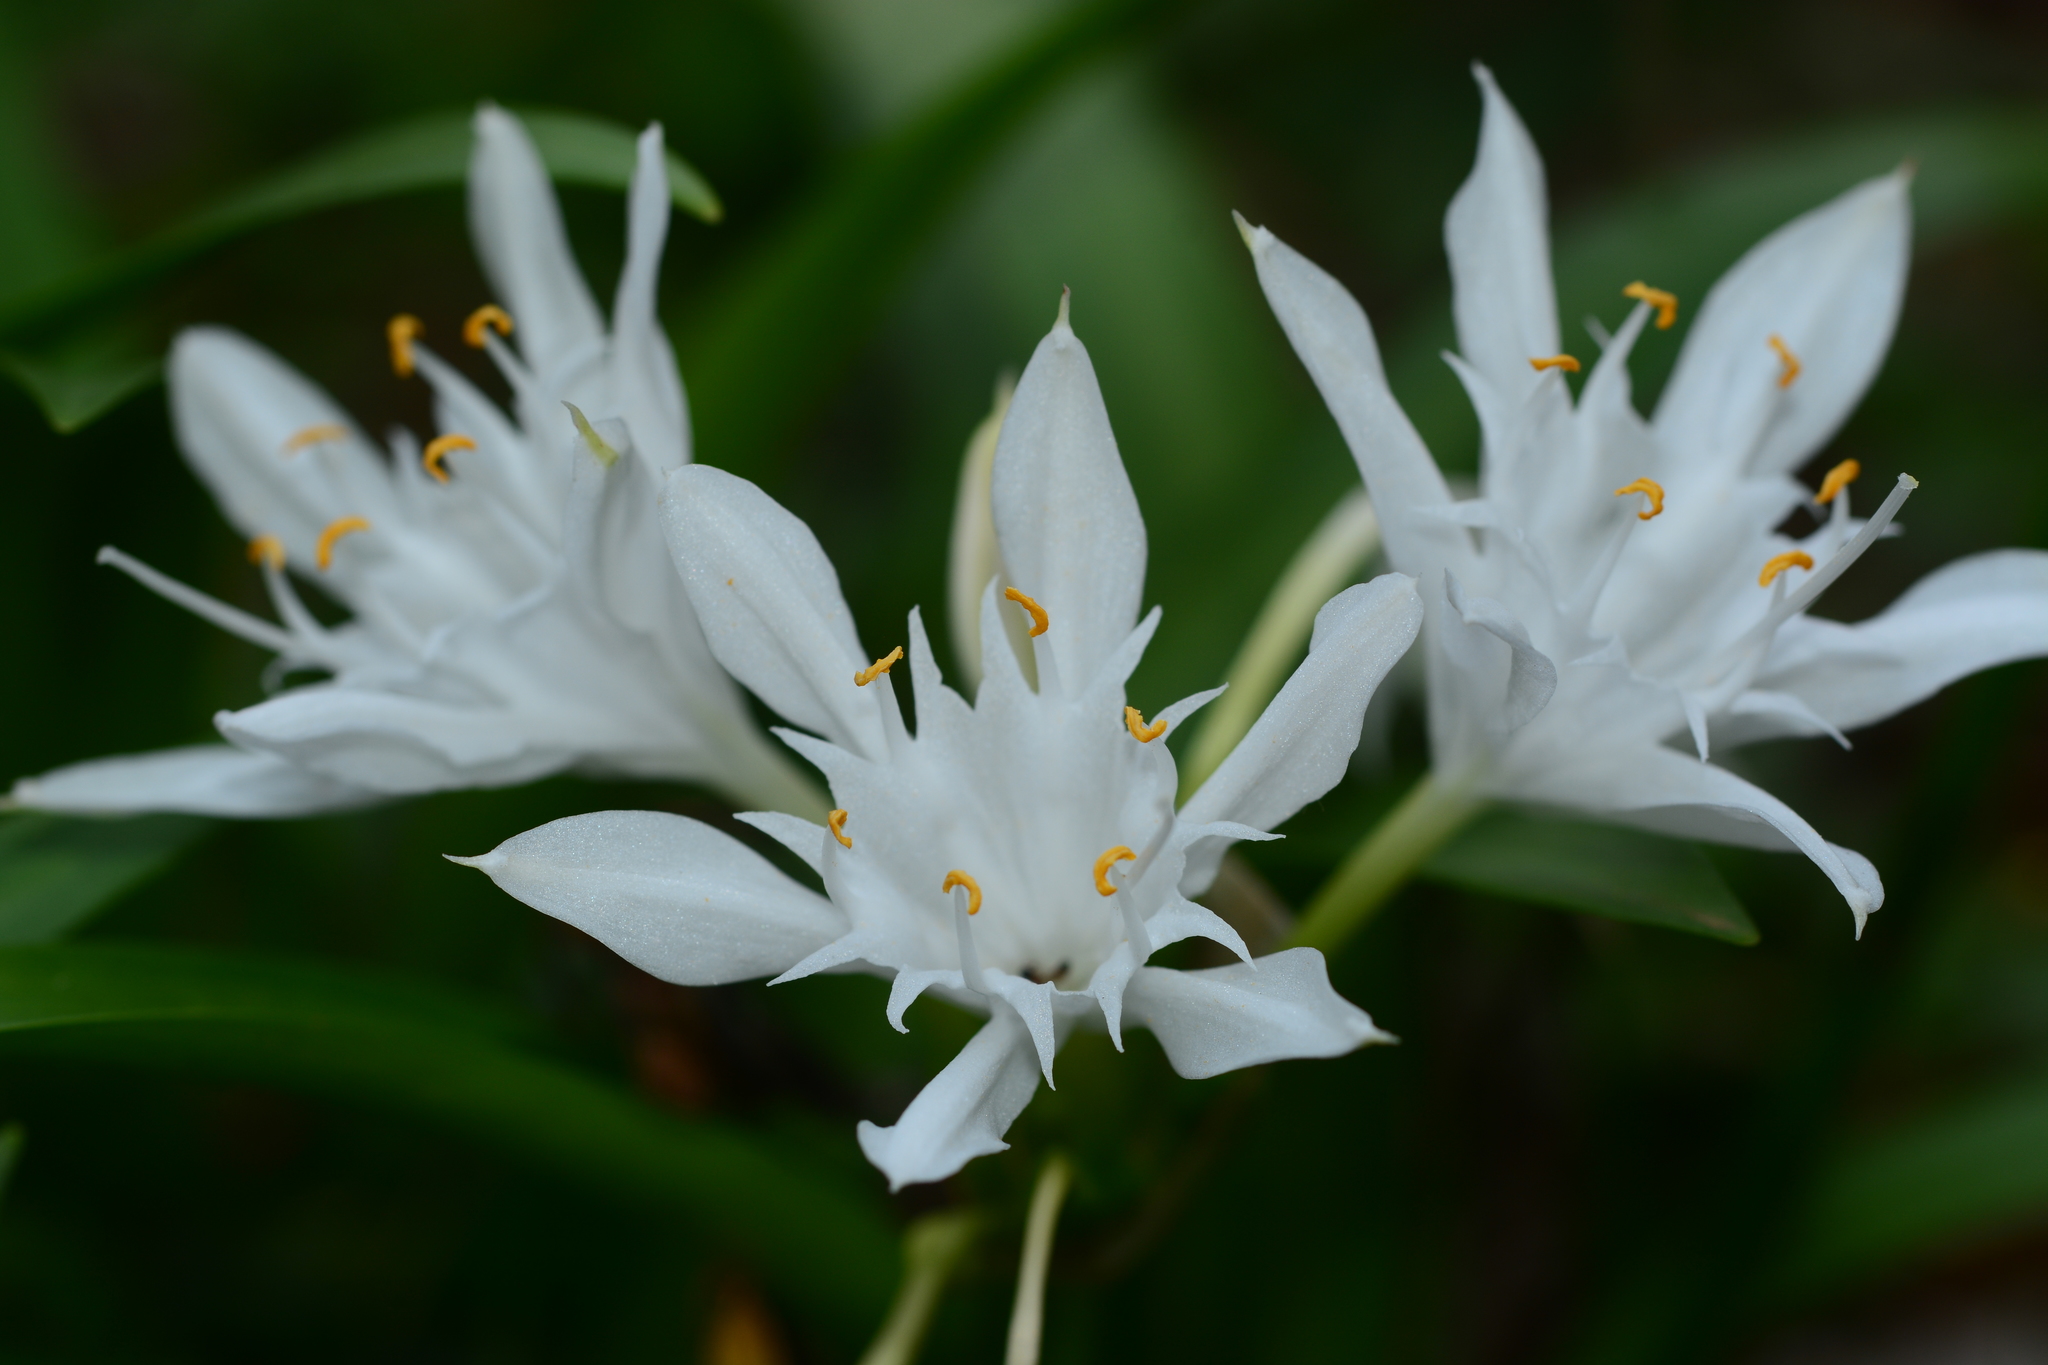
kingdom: Plantae
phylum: Tracheophyta
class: Liliopsida
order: Asparagales
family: Amaryllidaceae
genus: Pancratium
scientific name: Pancratium triflorum
